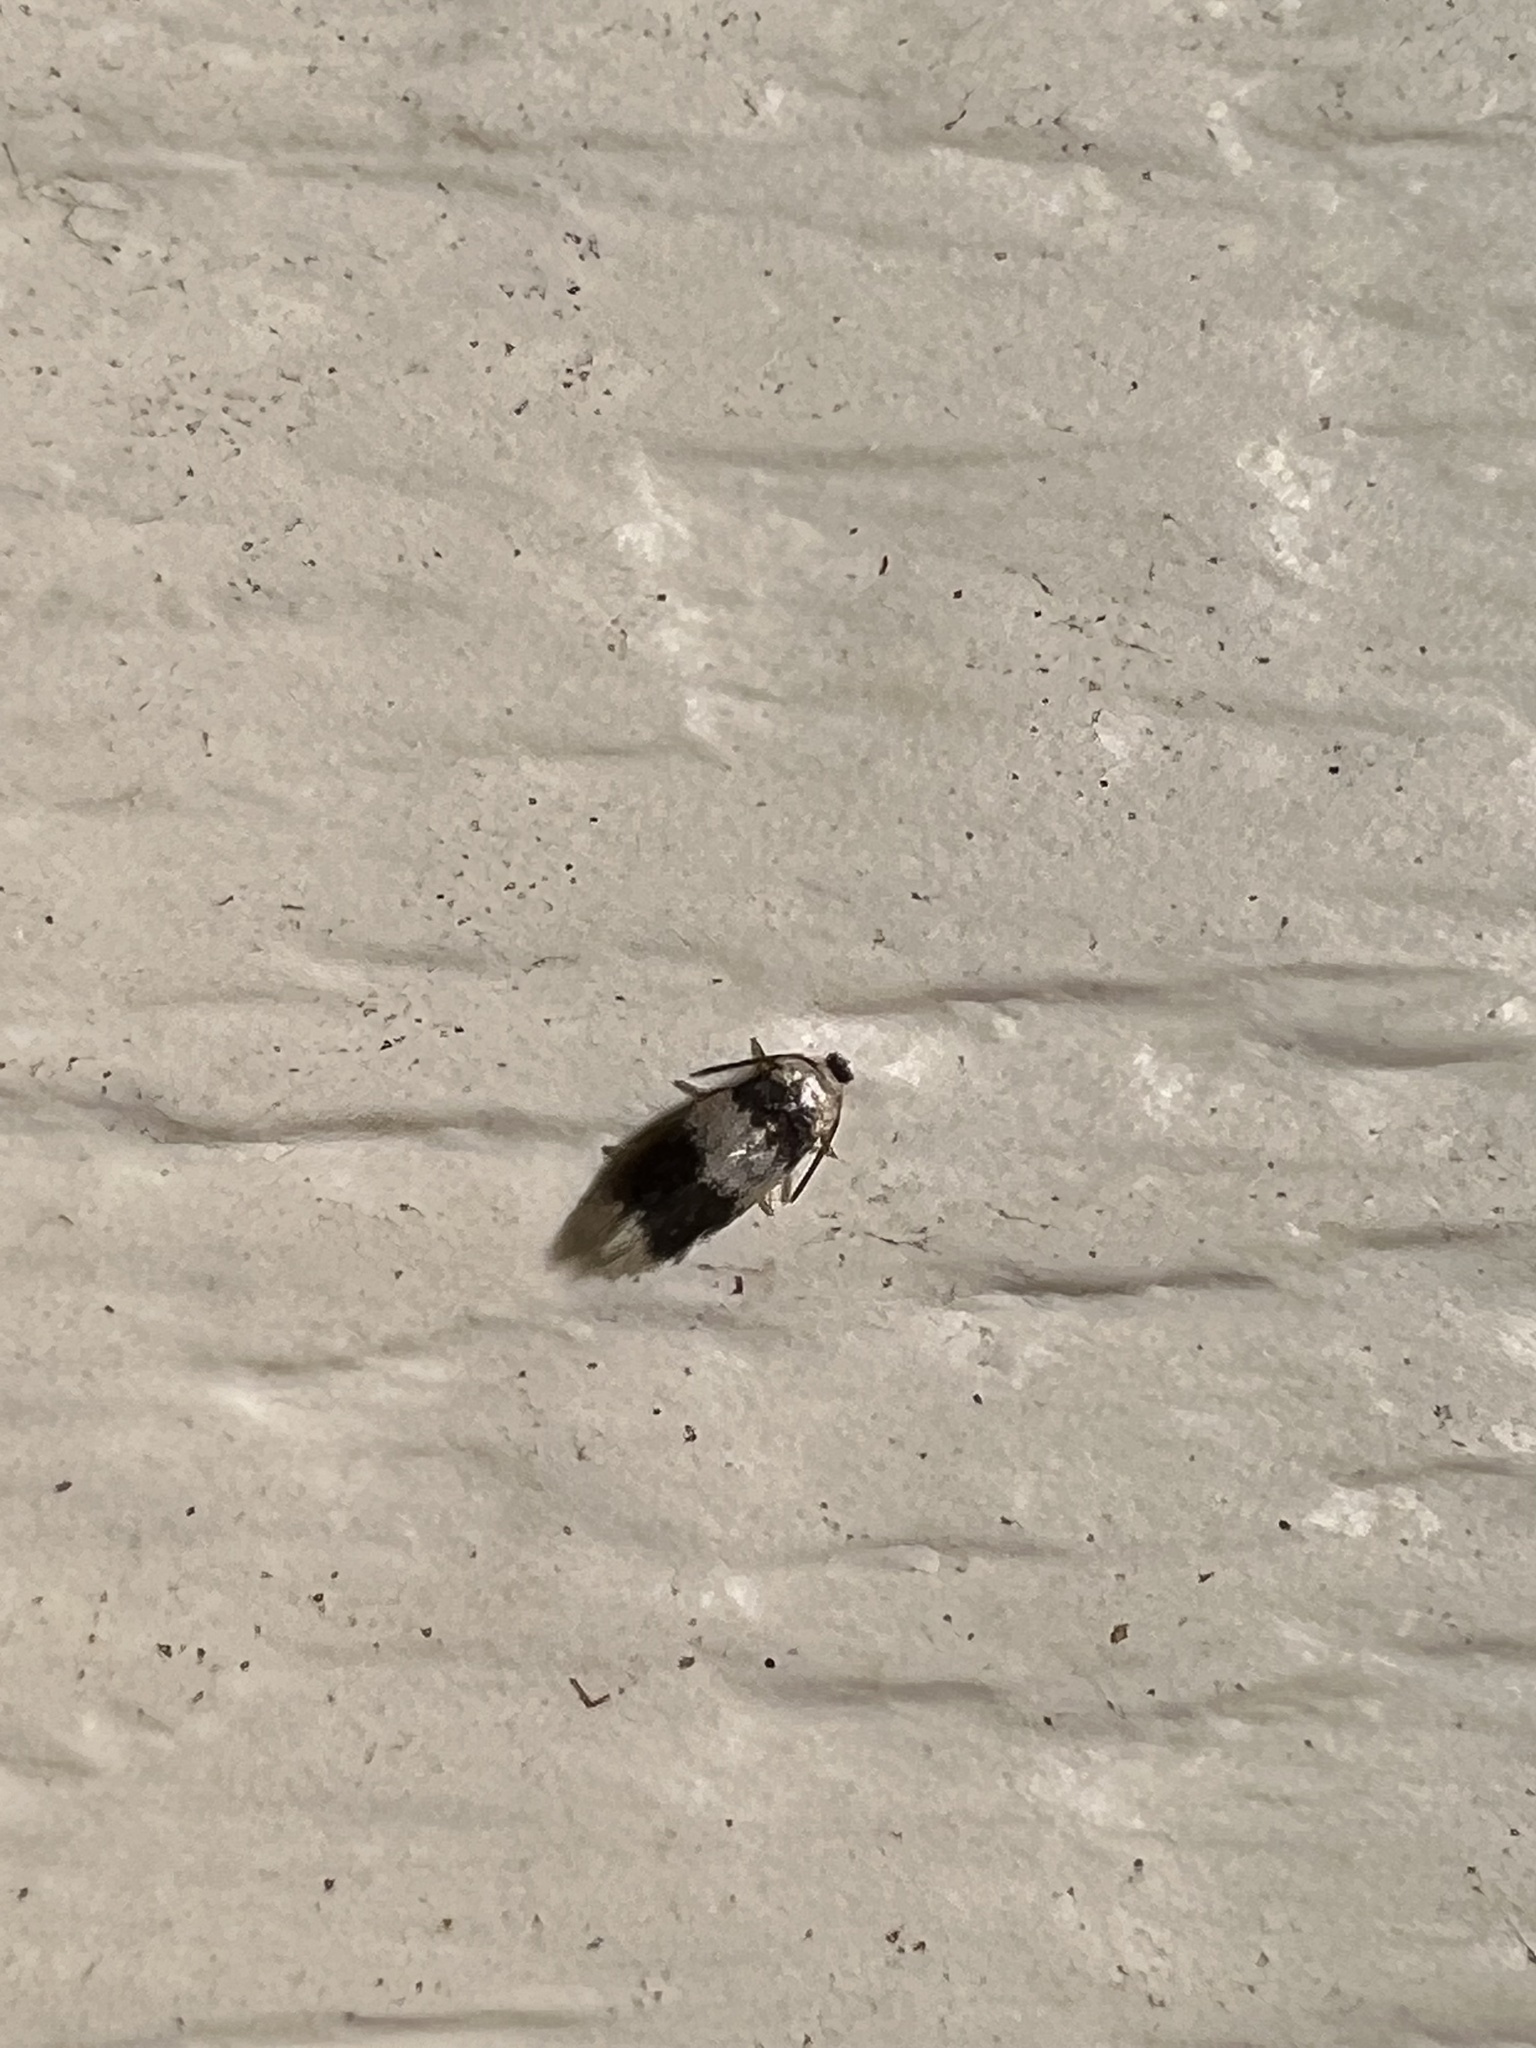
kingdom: Animalia
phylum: Arthropoda
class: Insecta
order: Lepidoptera
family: Nepticulidae
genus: Stigmella
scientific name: Stigmella nigriverticella
